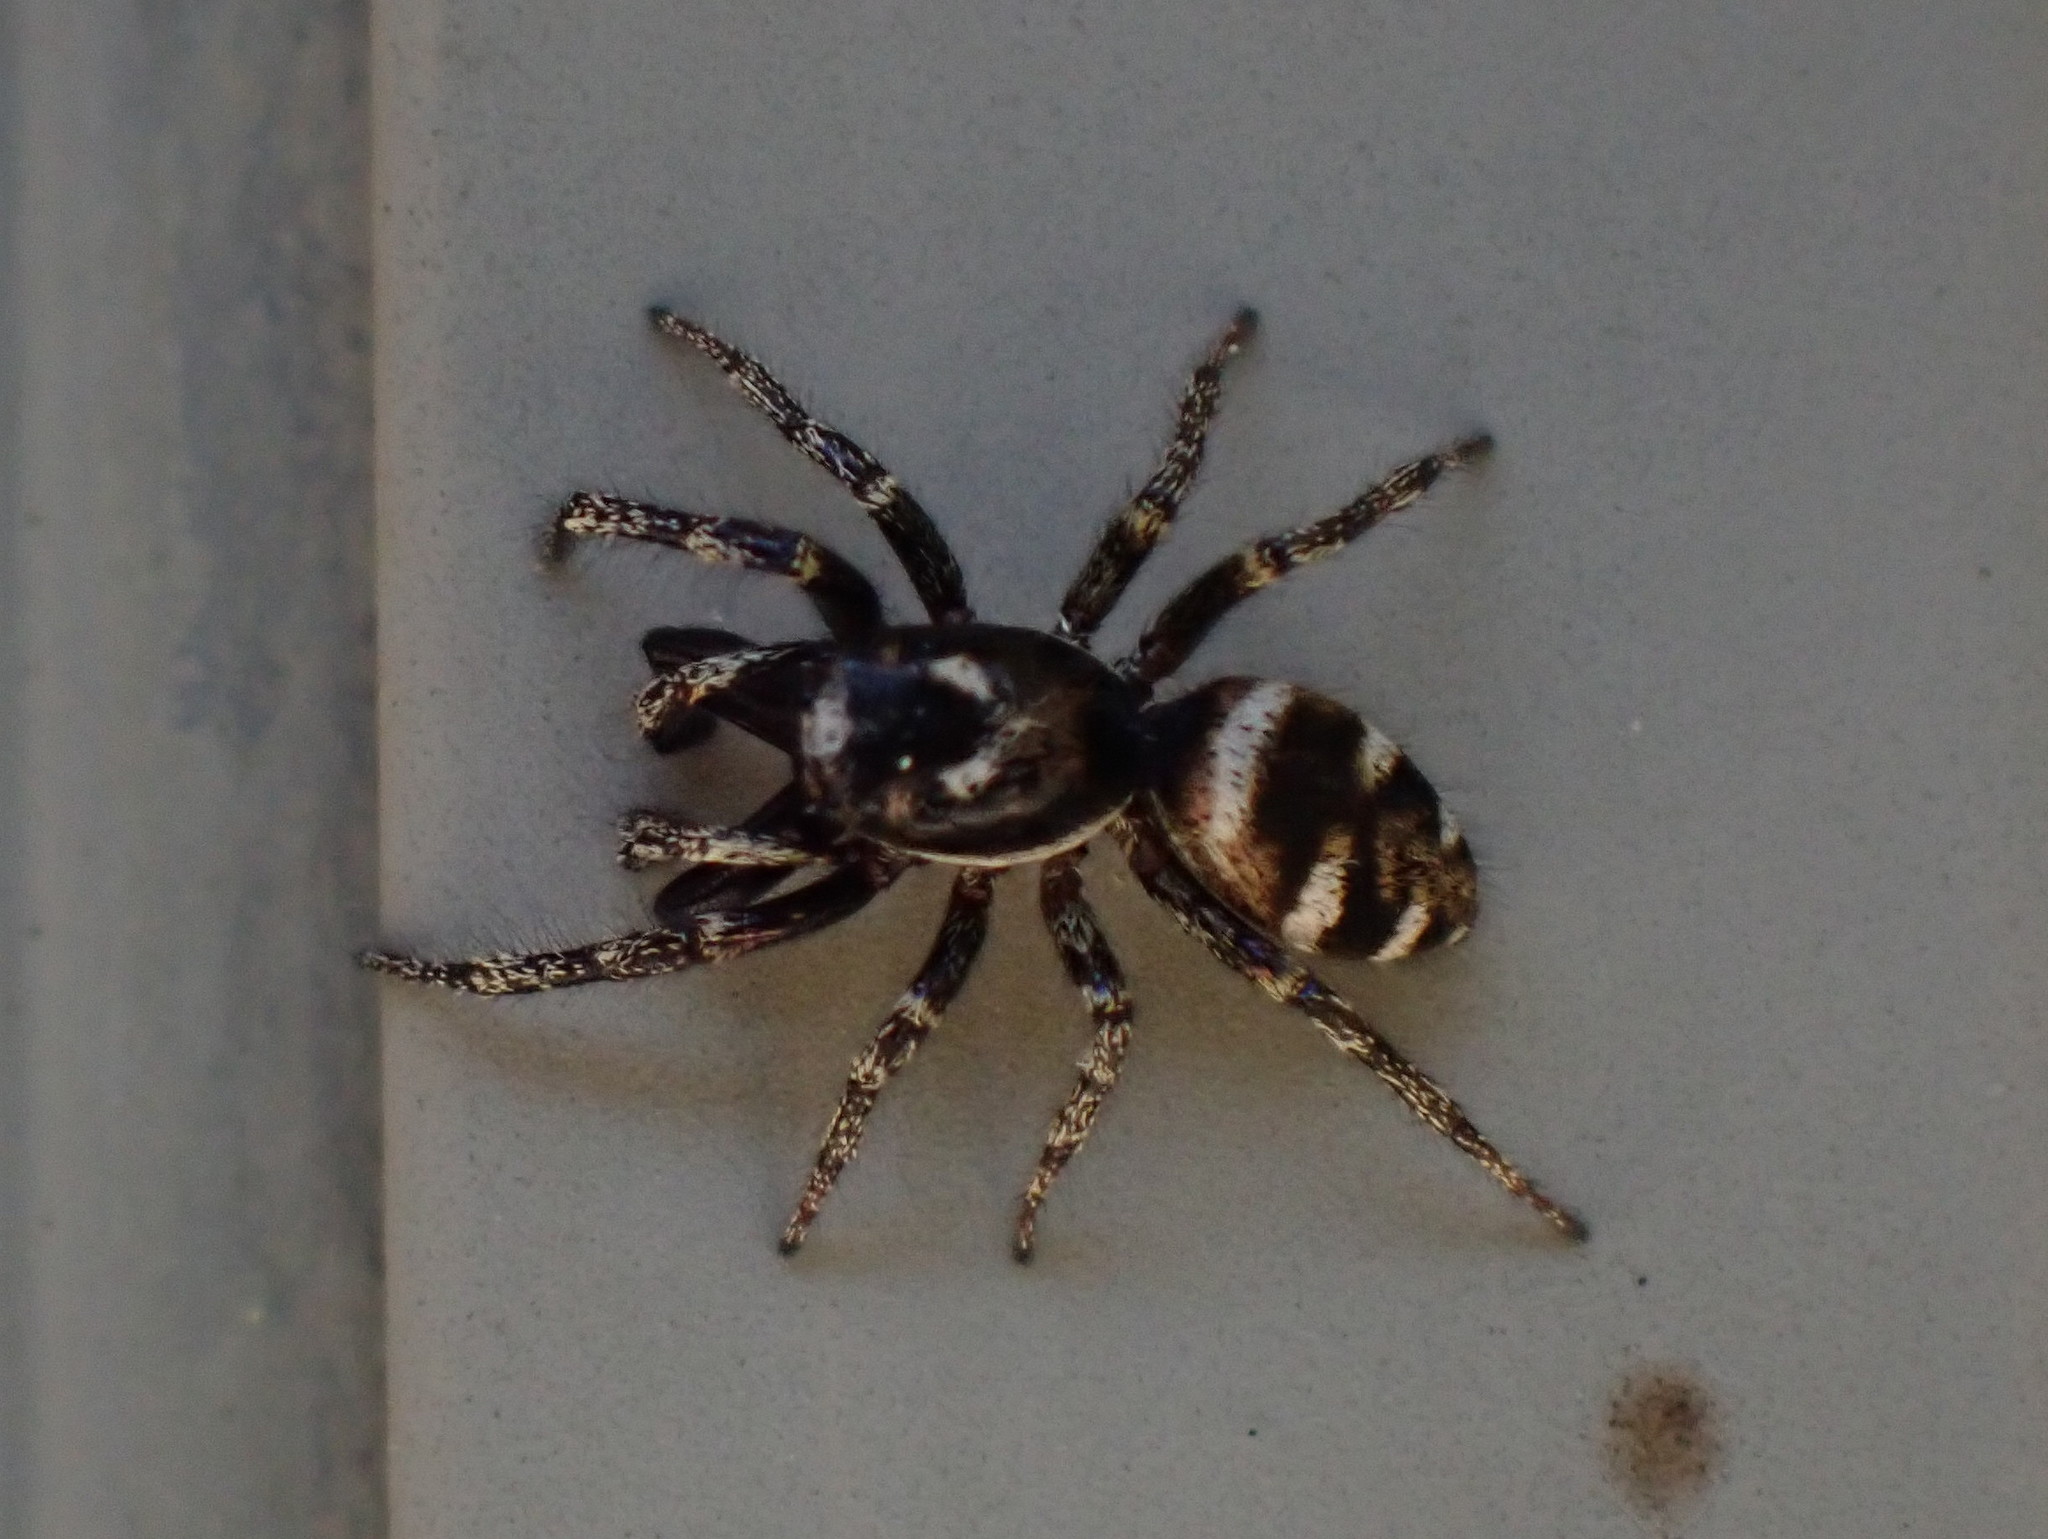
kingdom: Animalia
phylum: Arthropoda
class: Arachnida
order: Araneae
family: Salticidae
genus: Salticus
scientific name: Salticus scenicus
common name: Zebra jumper
